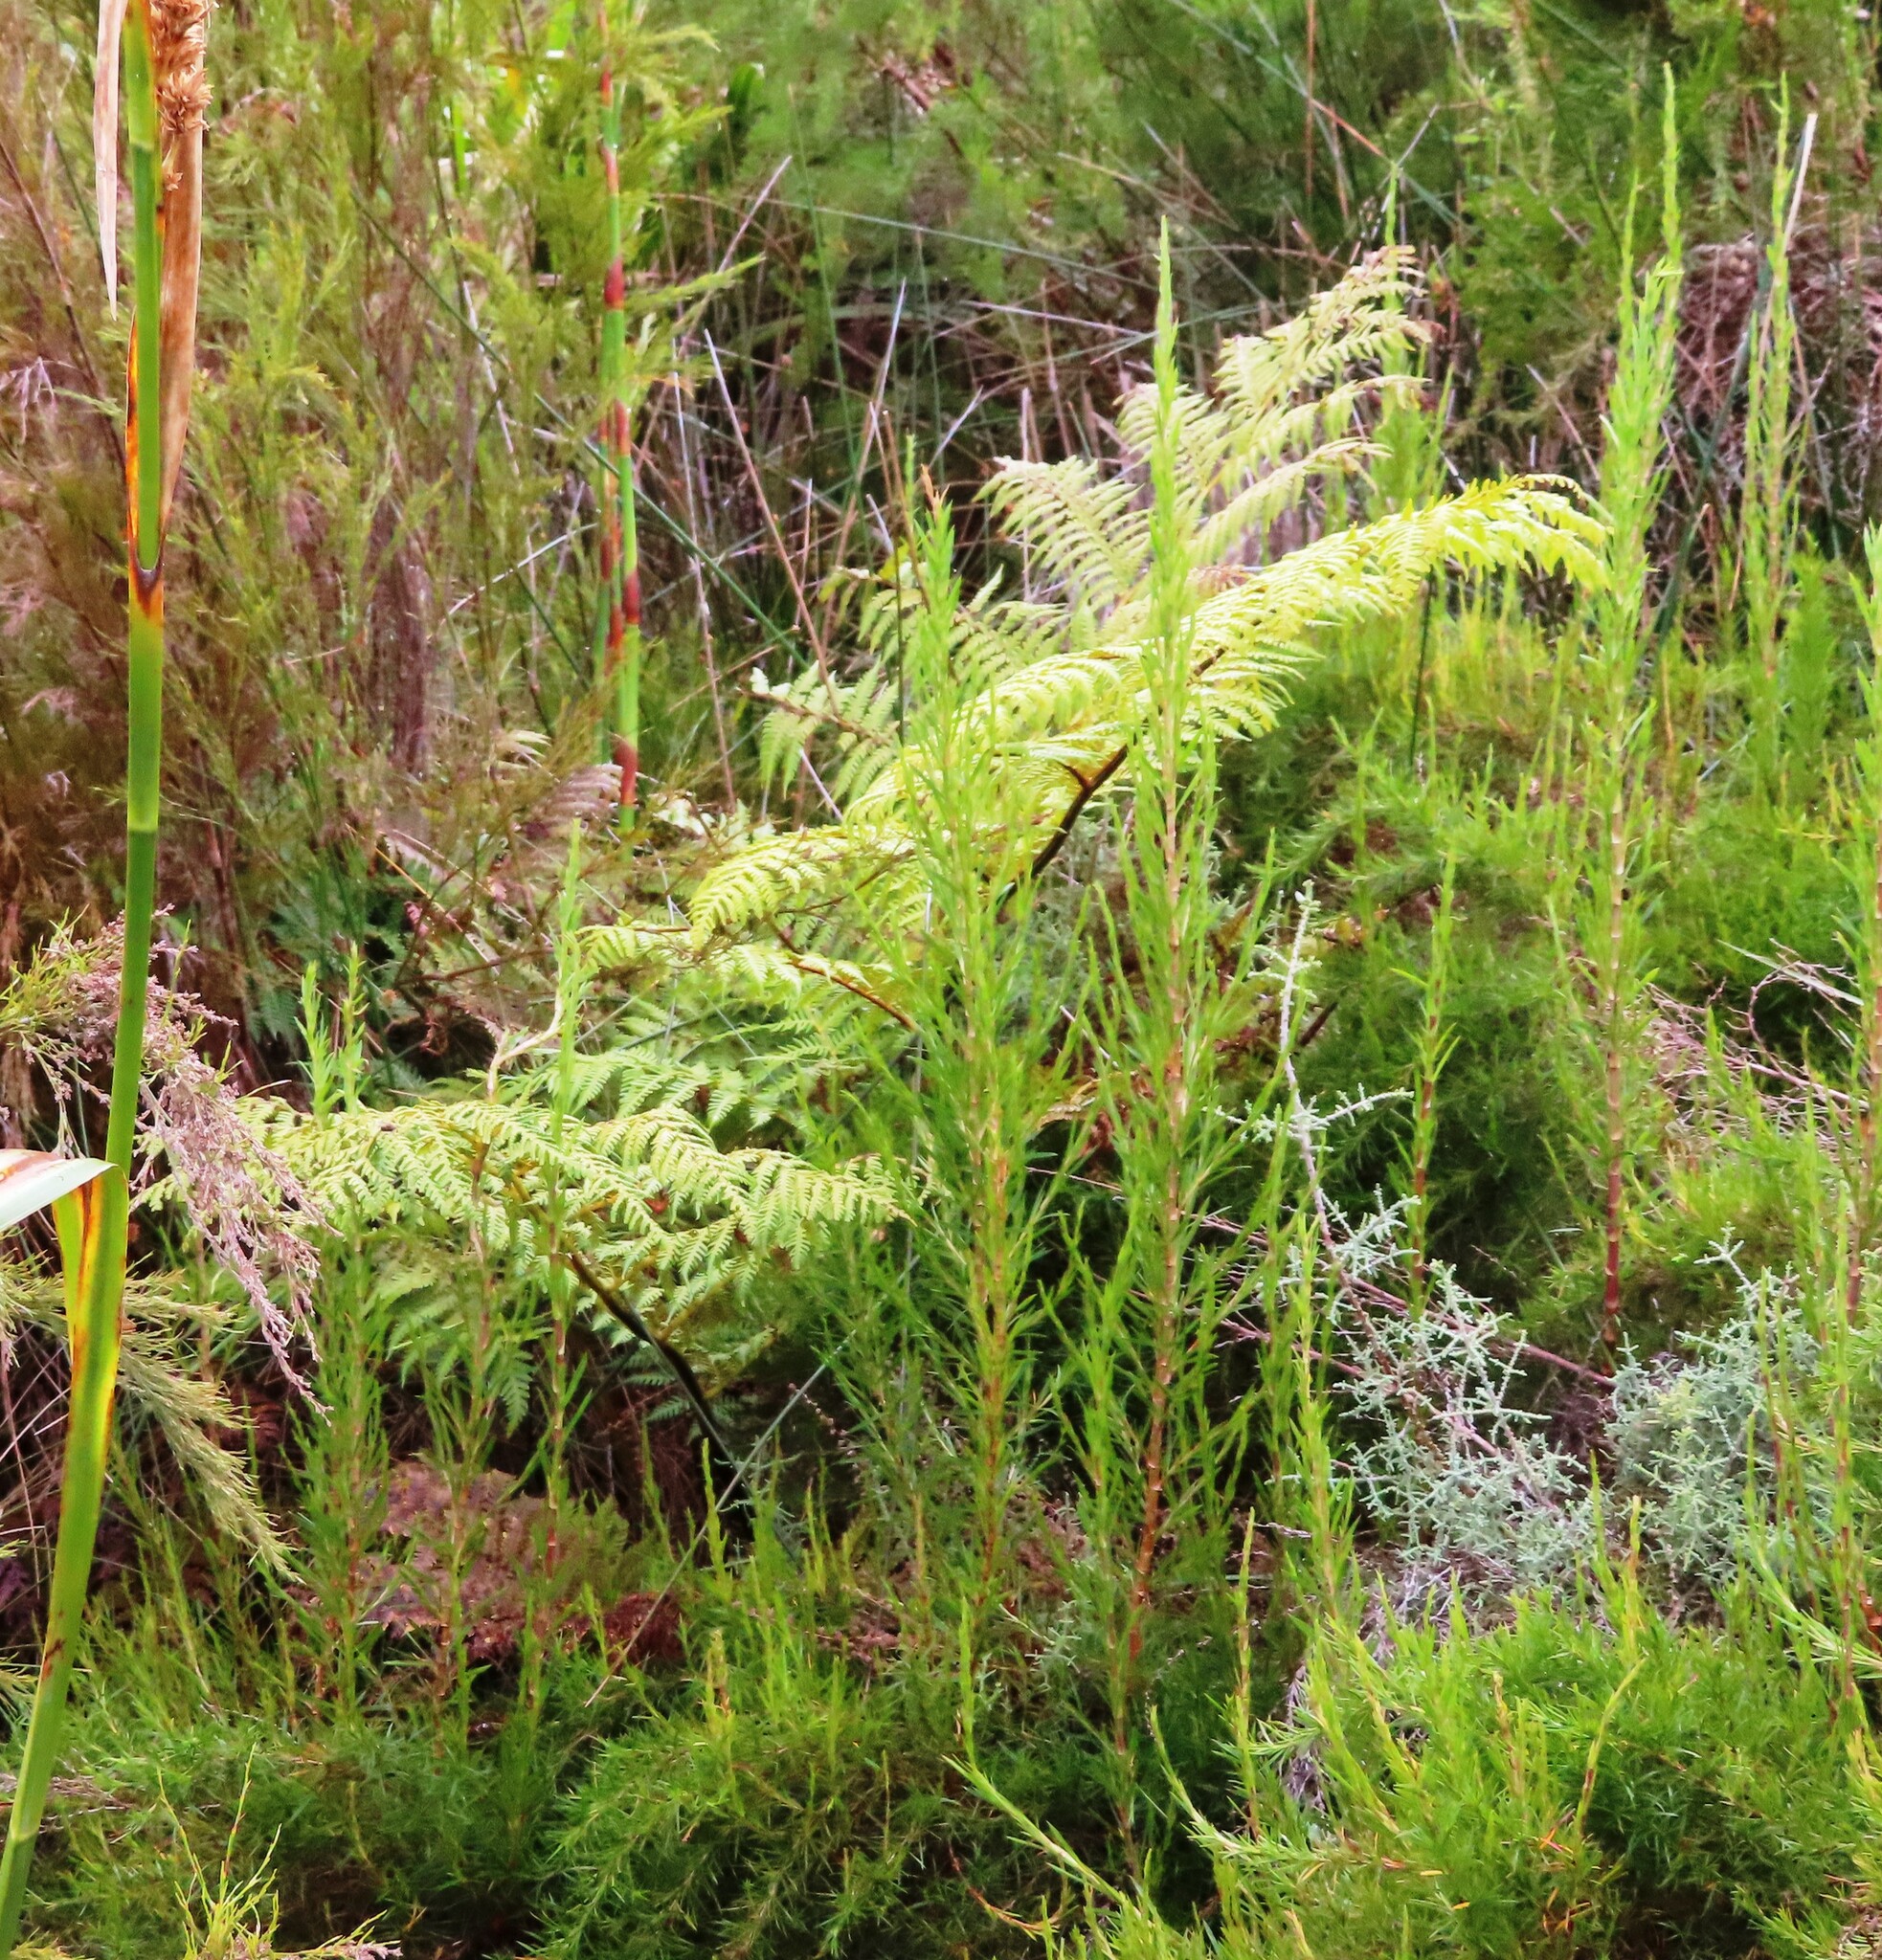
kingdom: Plantae
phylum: Tracheophyta
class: Polypodiopsida
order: Cyatheales
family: Cyatheaceae
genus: Sphaeropteris
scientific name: Sphaeropteris cooperi
